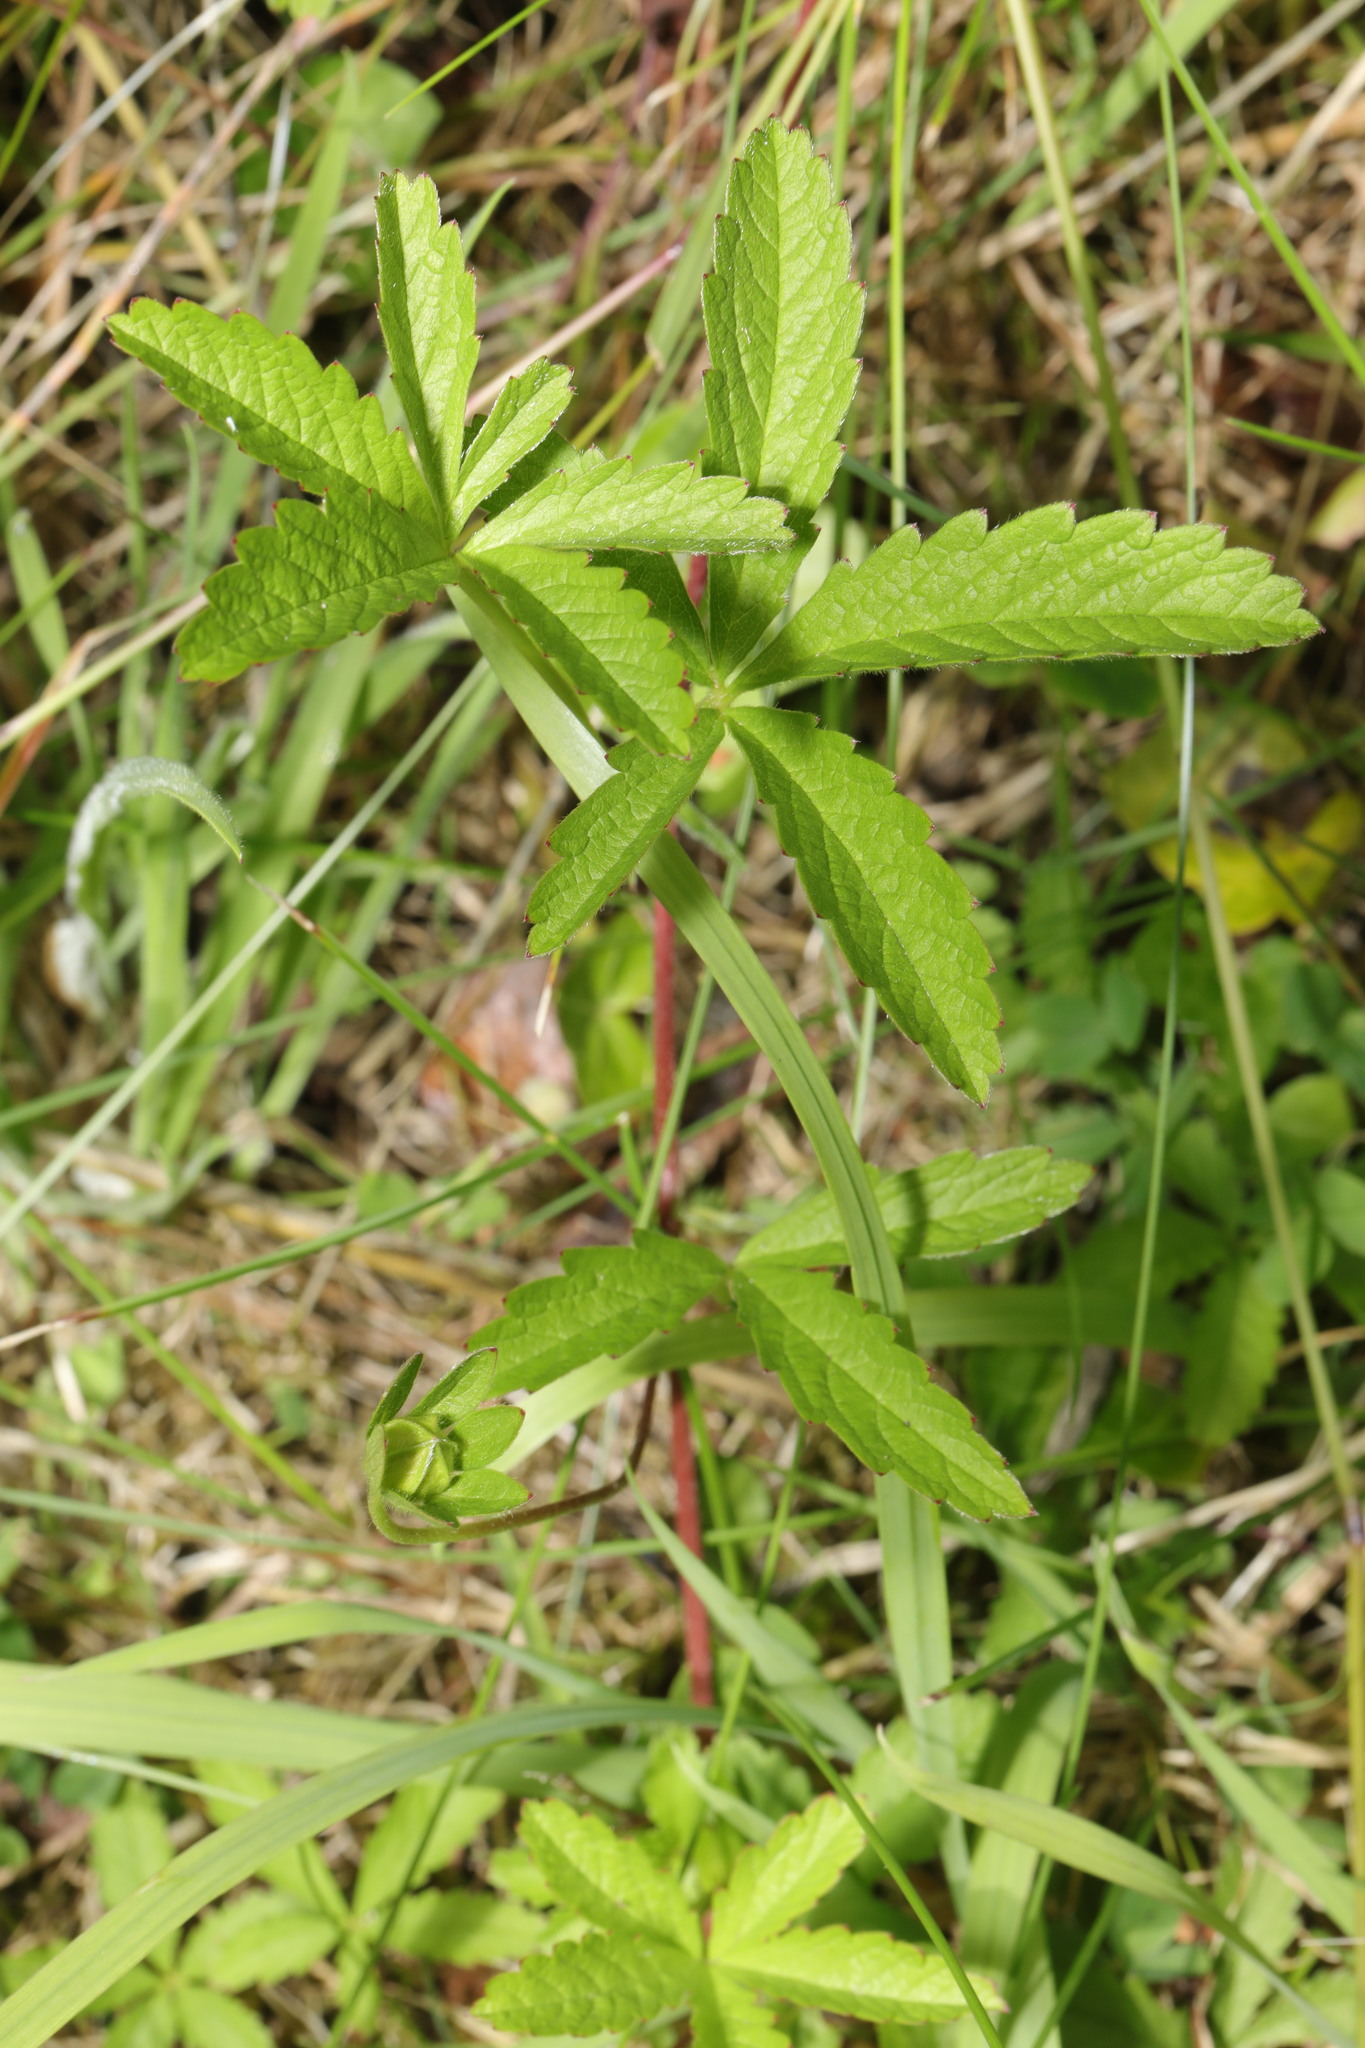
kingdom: Plantae
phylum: Tracheophyta
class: Magnoliopsida
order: Rosales
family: Rosaceae
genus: Potentilla
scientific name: Potentilla reptans
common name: Creeping cinquefoil
